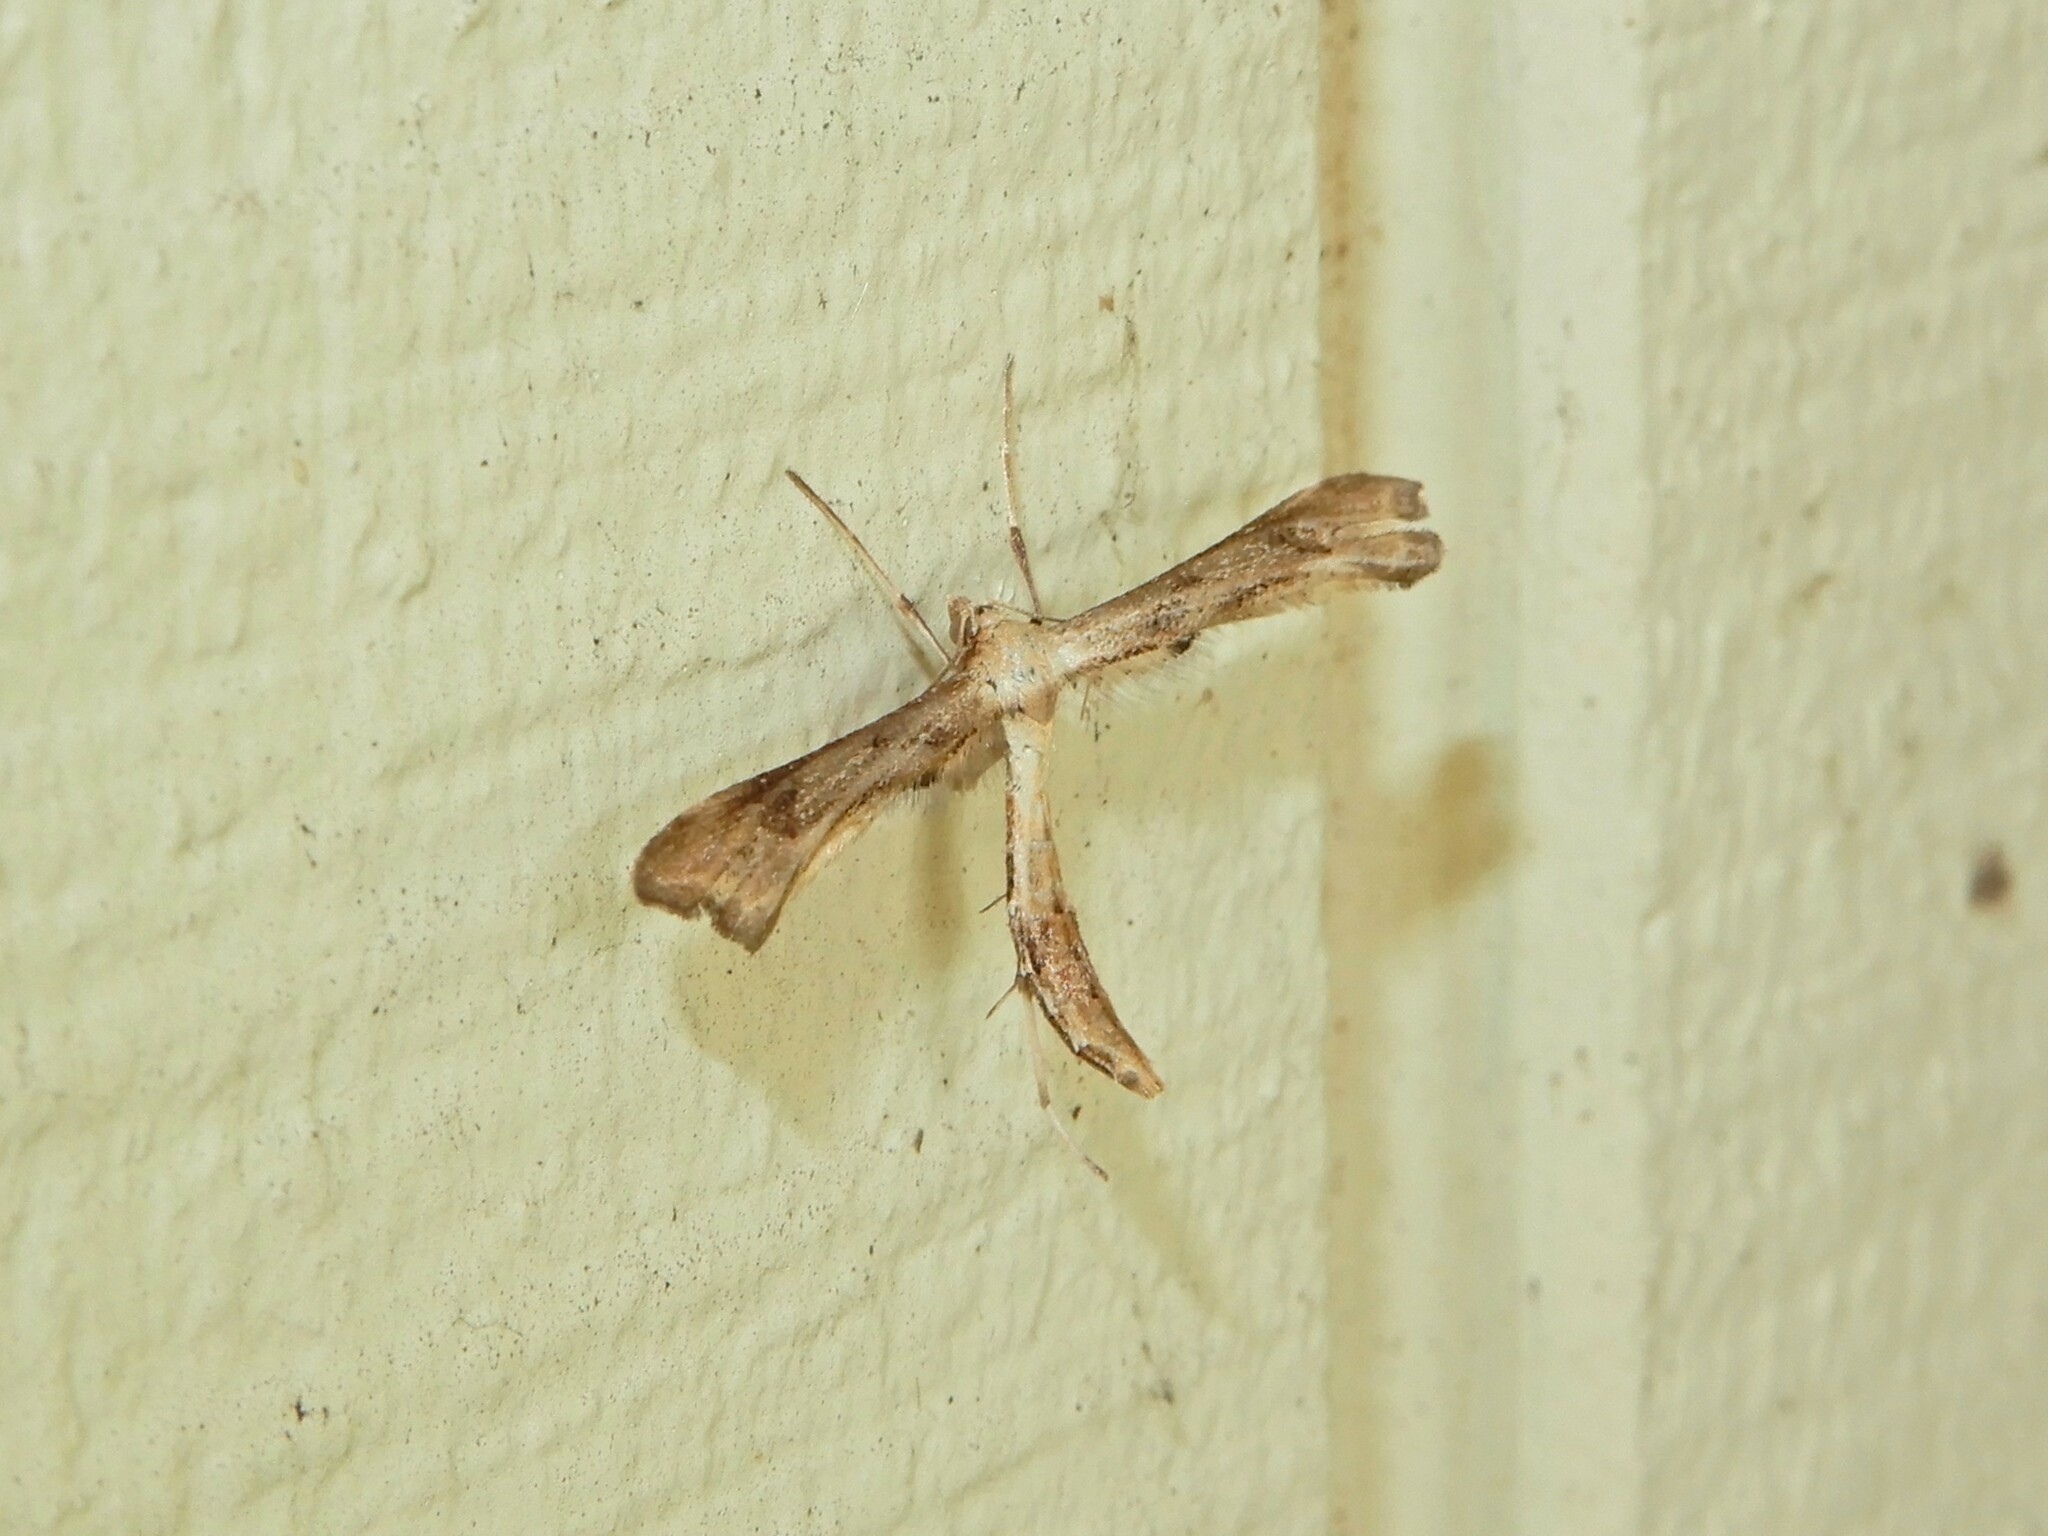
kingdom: Animalia
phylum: Arthropoda
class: Insecta
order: Lepidoptera
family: Pterophoridae
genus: Platyptilia
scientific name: Platyptilia isodactylus
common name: Hoary plume
